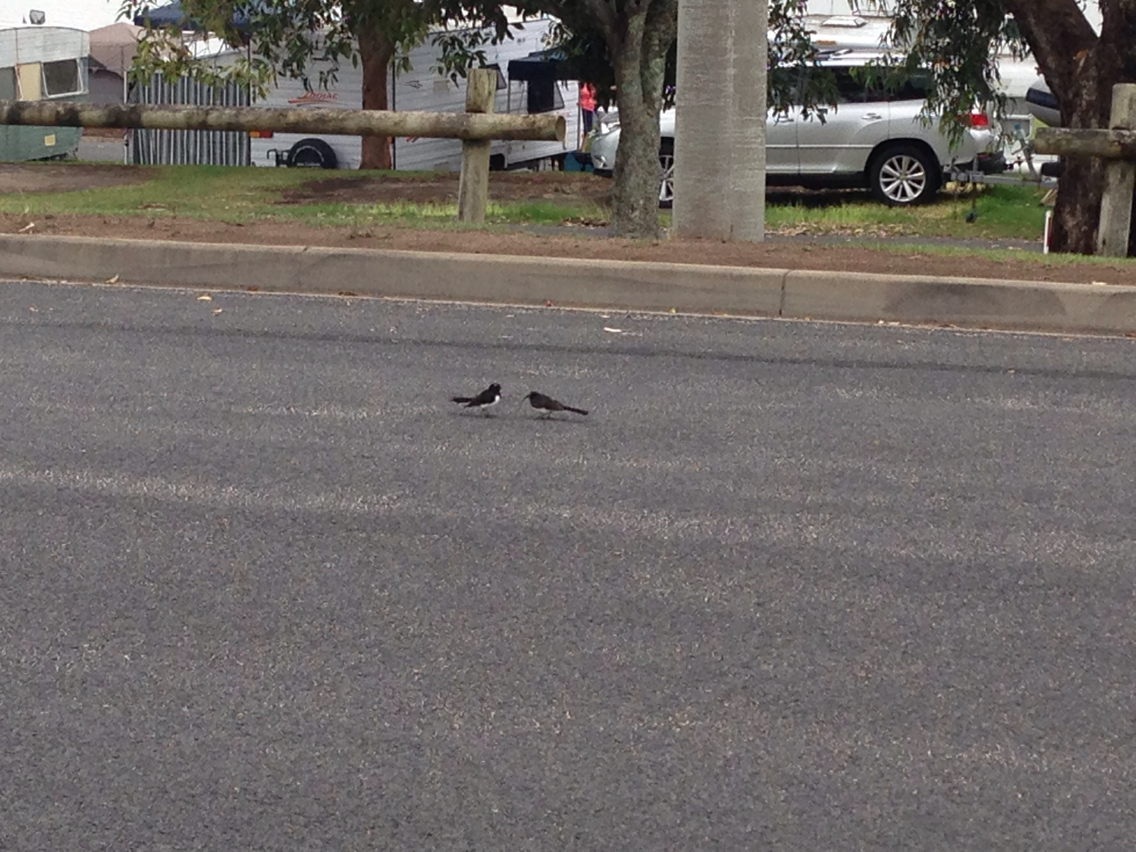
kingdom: Animalia
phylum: Chordata
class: Aves
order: Passeriformes
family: Rhipiduridae
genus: Rhipidura
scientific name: Rhipidura leucophrys
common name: Willie wagtail
